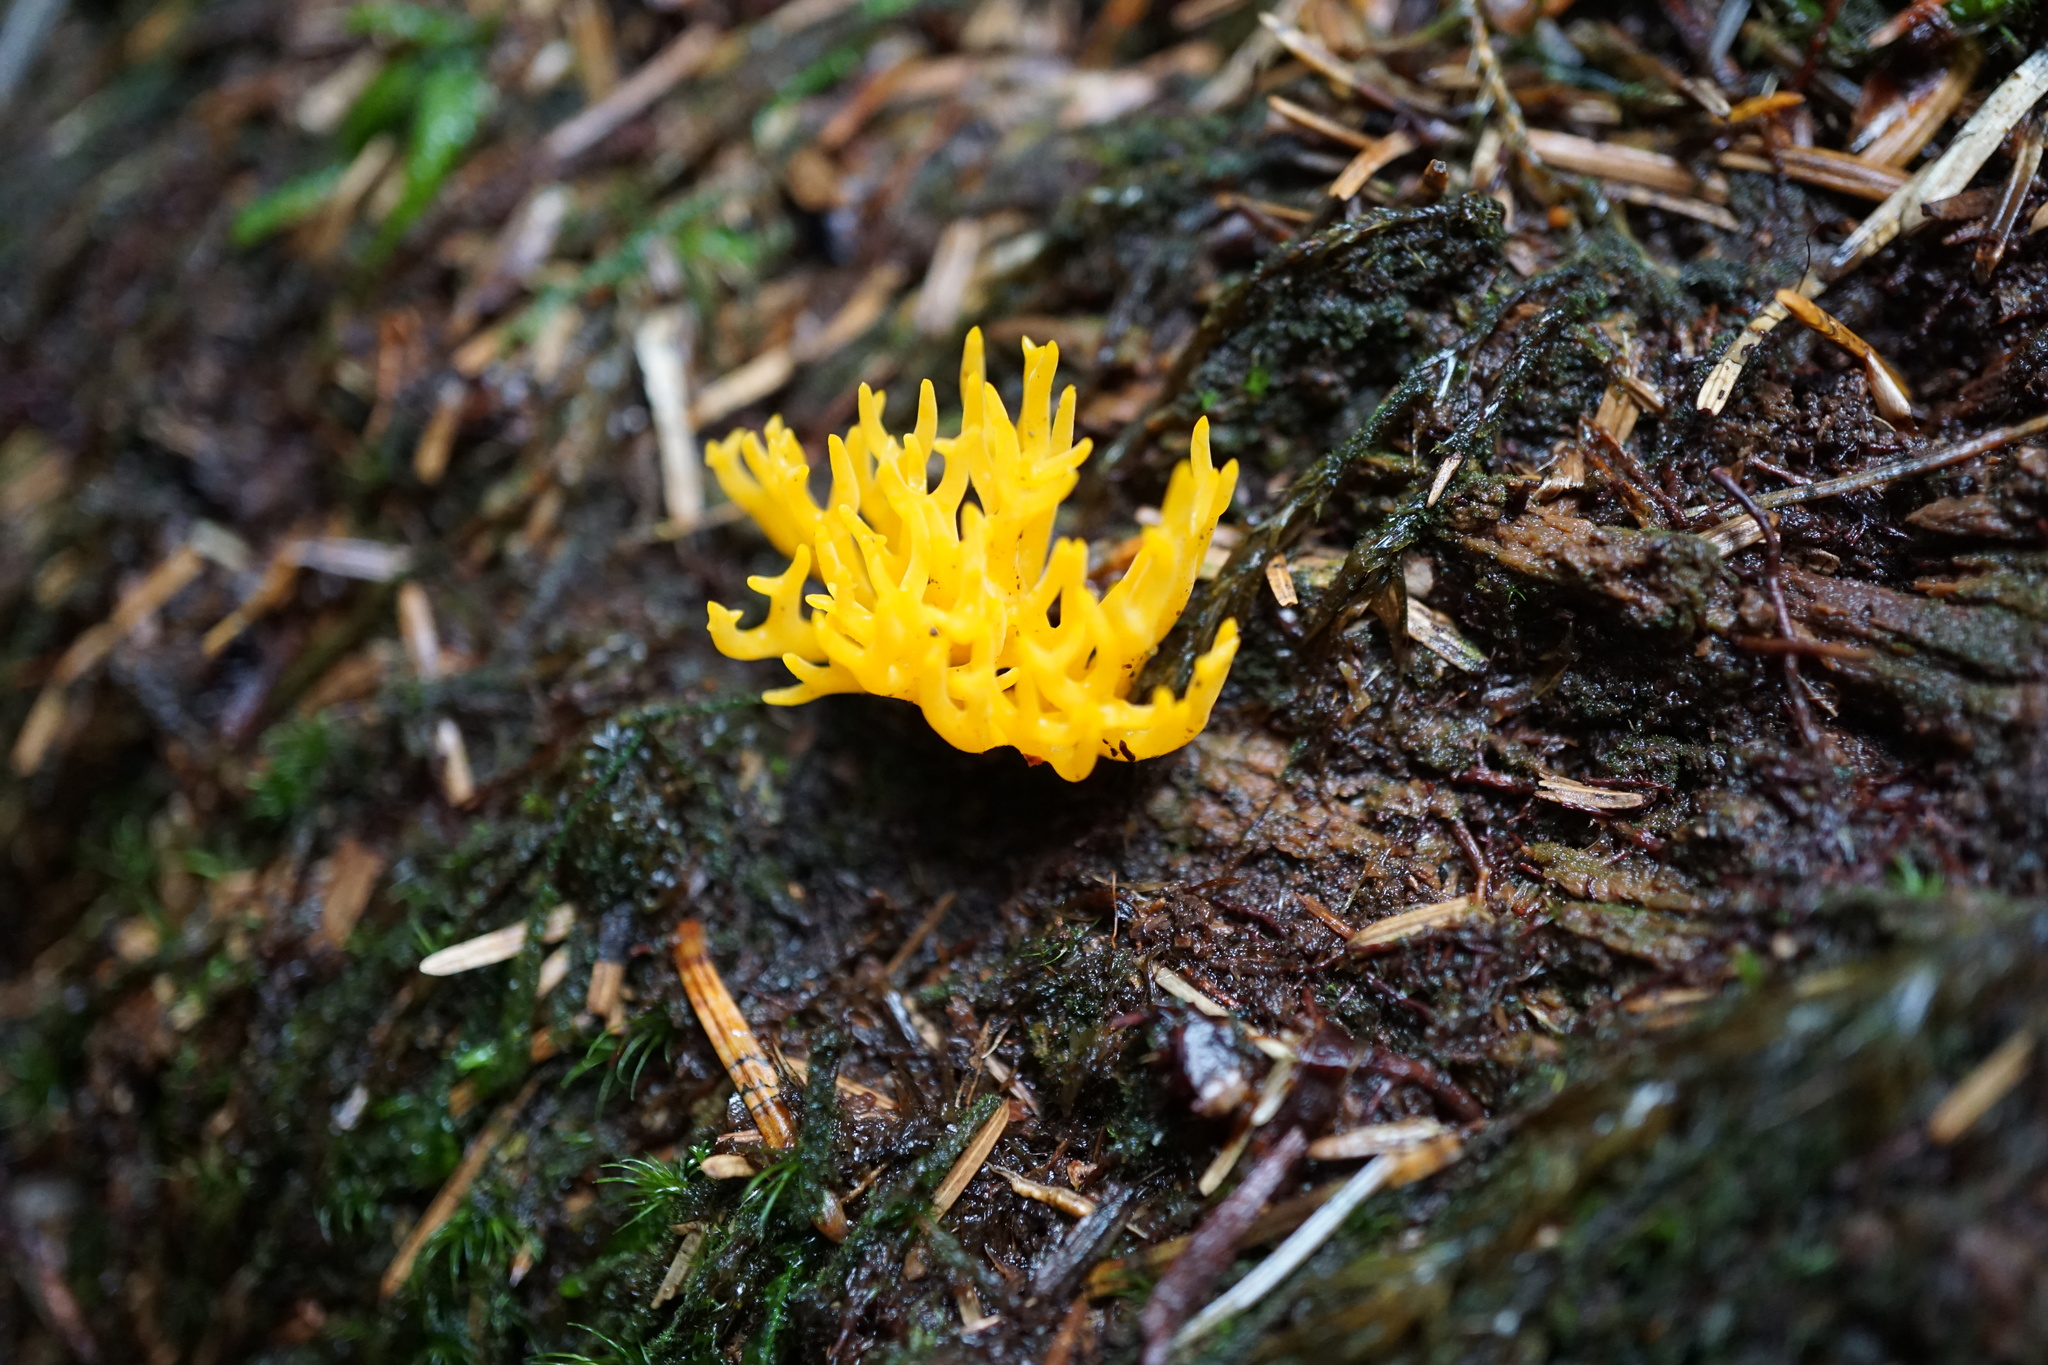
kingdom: Fungi
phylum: Basidiomycota
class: Dacrymycetes
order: Dacrymycetales
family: Dacrymycetaceae
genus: Calocera
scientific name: Calocera cornea
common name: Small stagshorn
